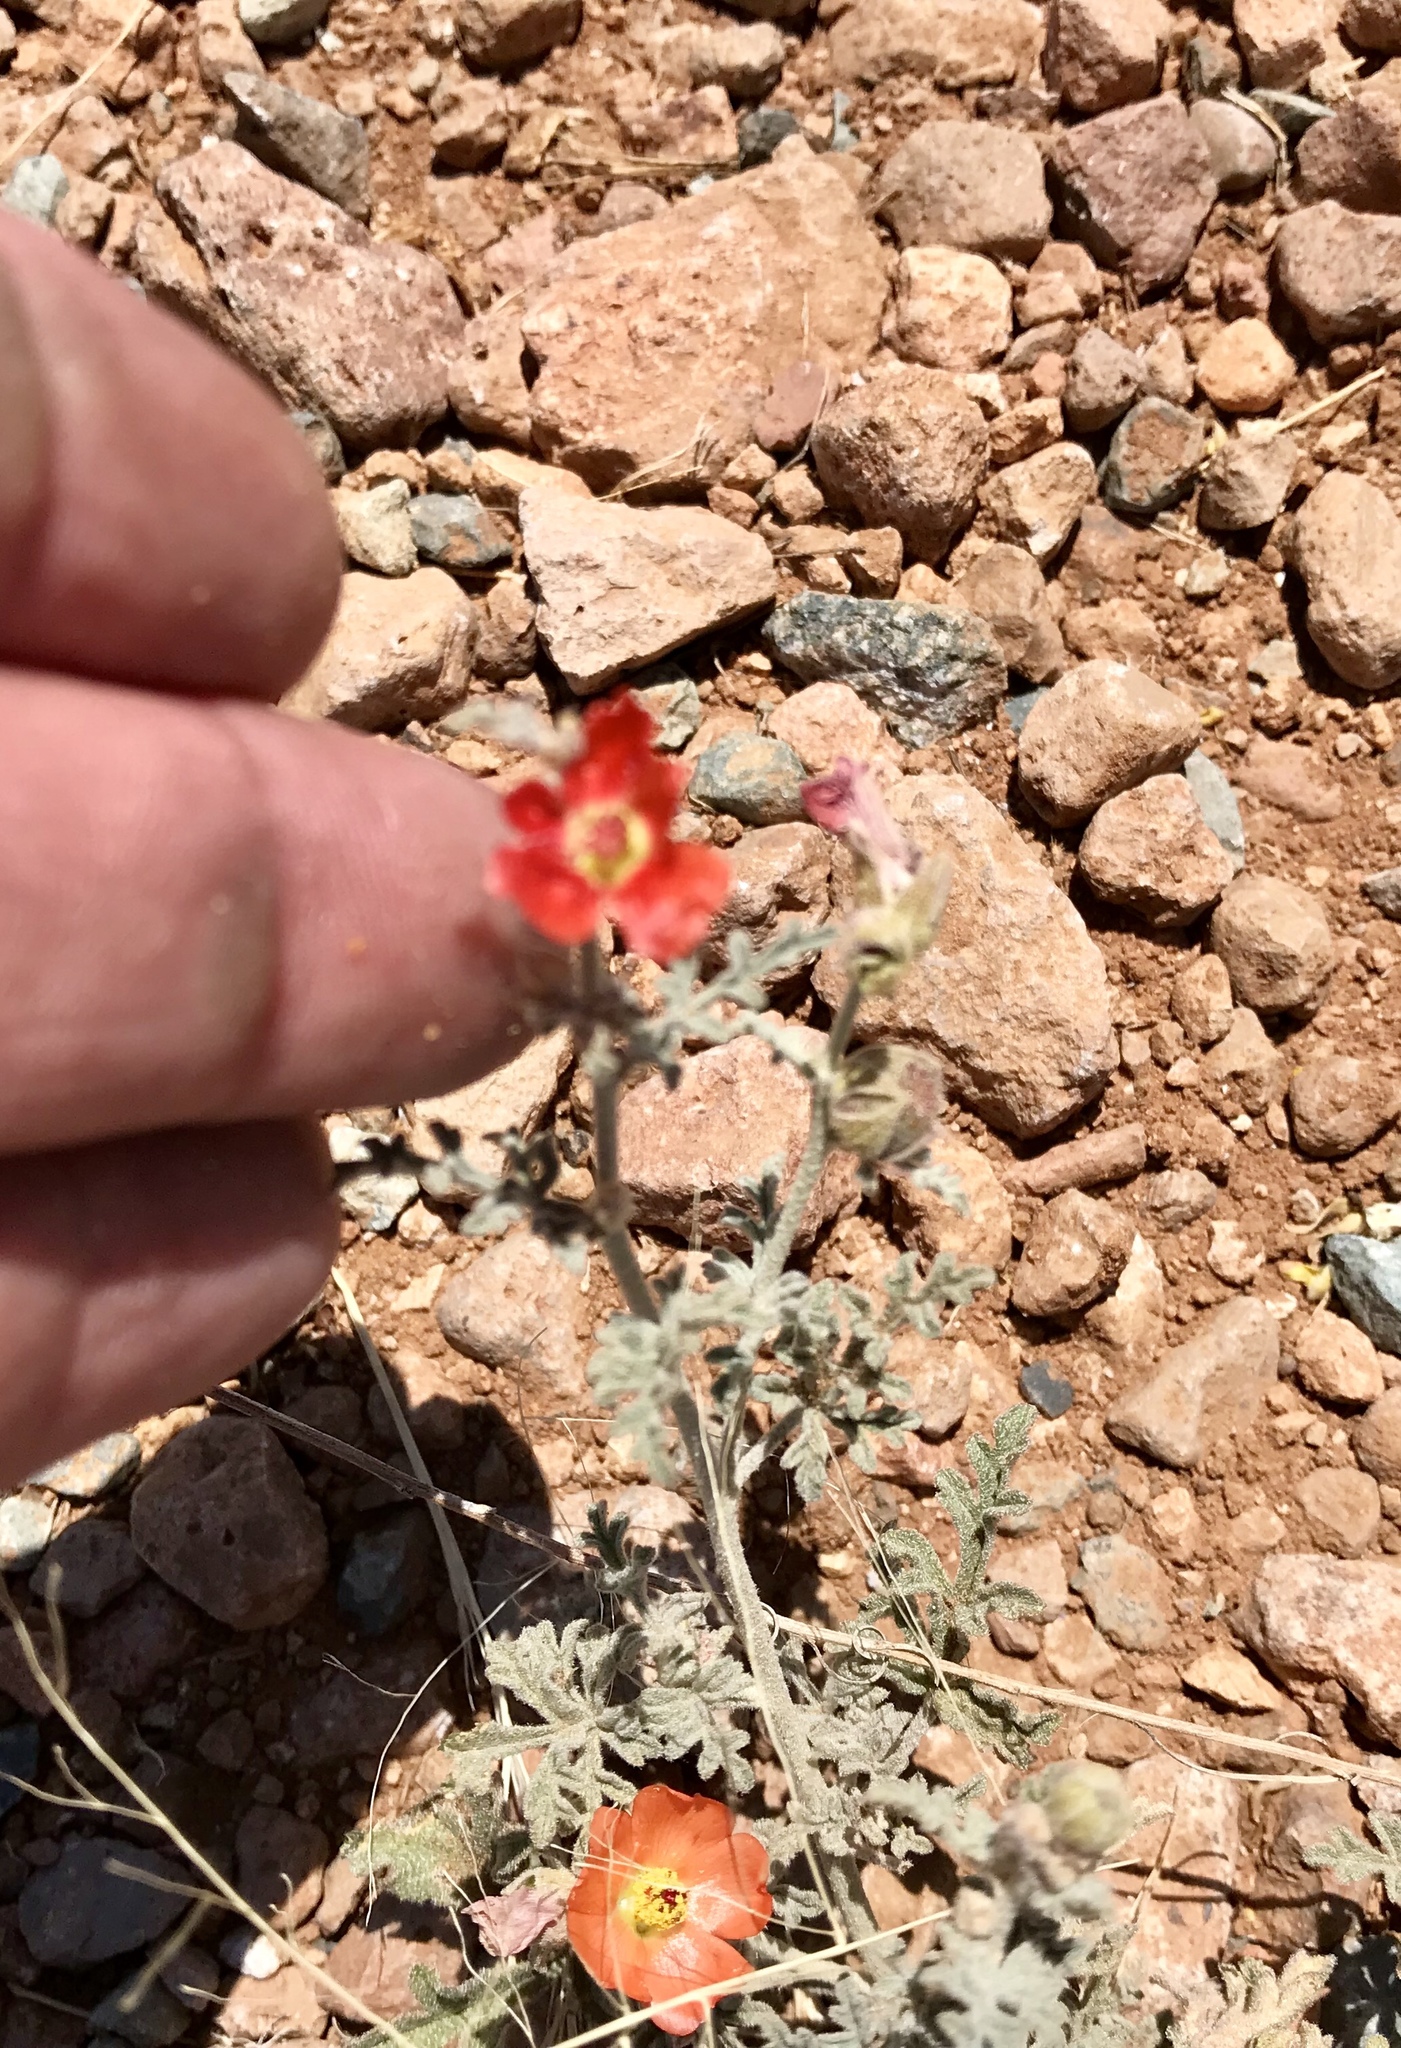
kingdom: Plantae
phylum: Tracheophyta
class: Magnoliopsida
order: Malvales
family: Malvaceae
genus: Sphaeralcea
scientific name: Sphaeralcea hastulata
